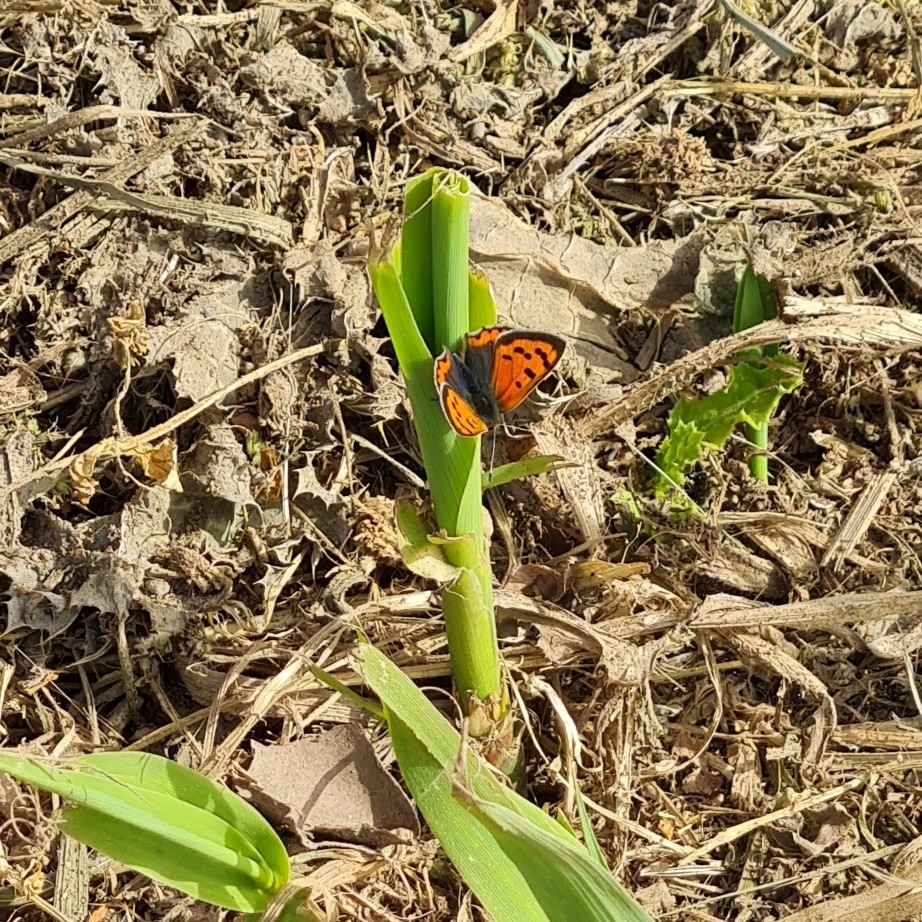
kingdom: Animalia
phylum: Arthropoda
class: Insecta
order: Lepidoptera
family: Lycaenidae
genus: Lycaena
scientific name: Lycaena phlaeas
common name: Small copper
